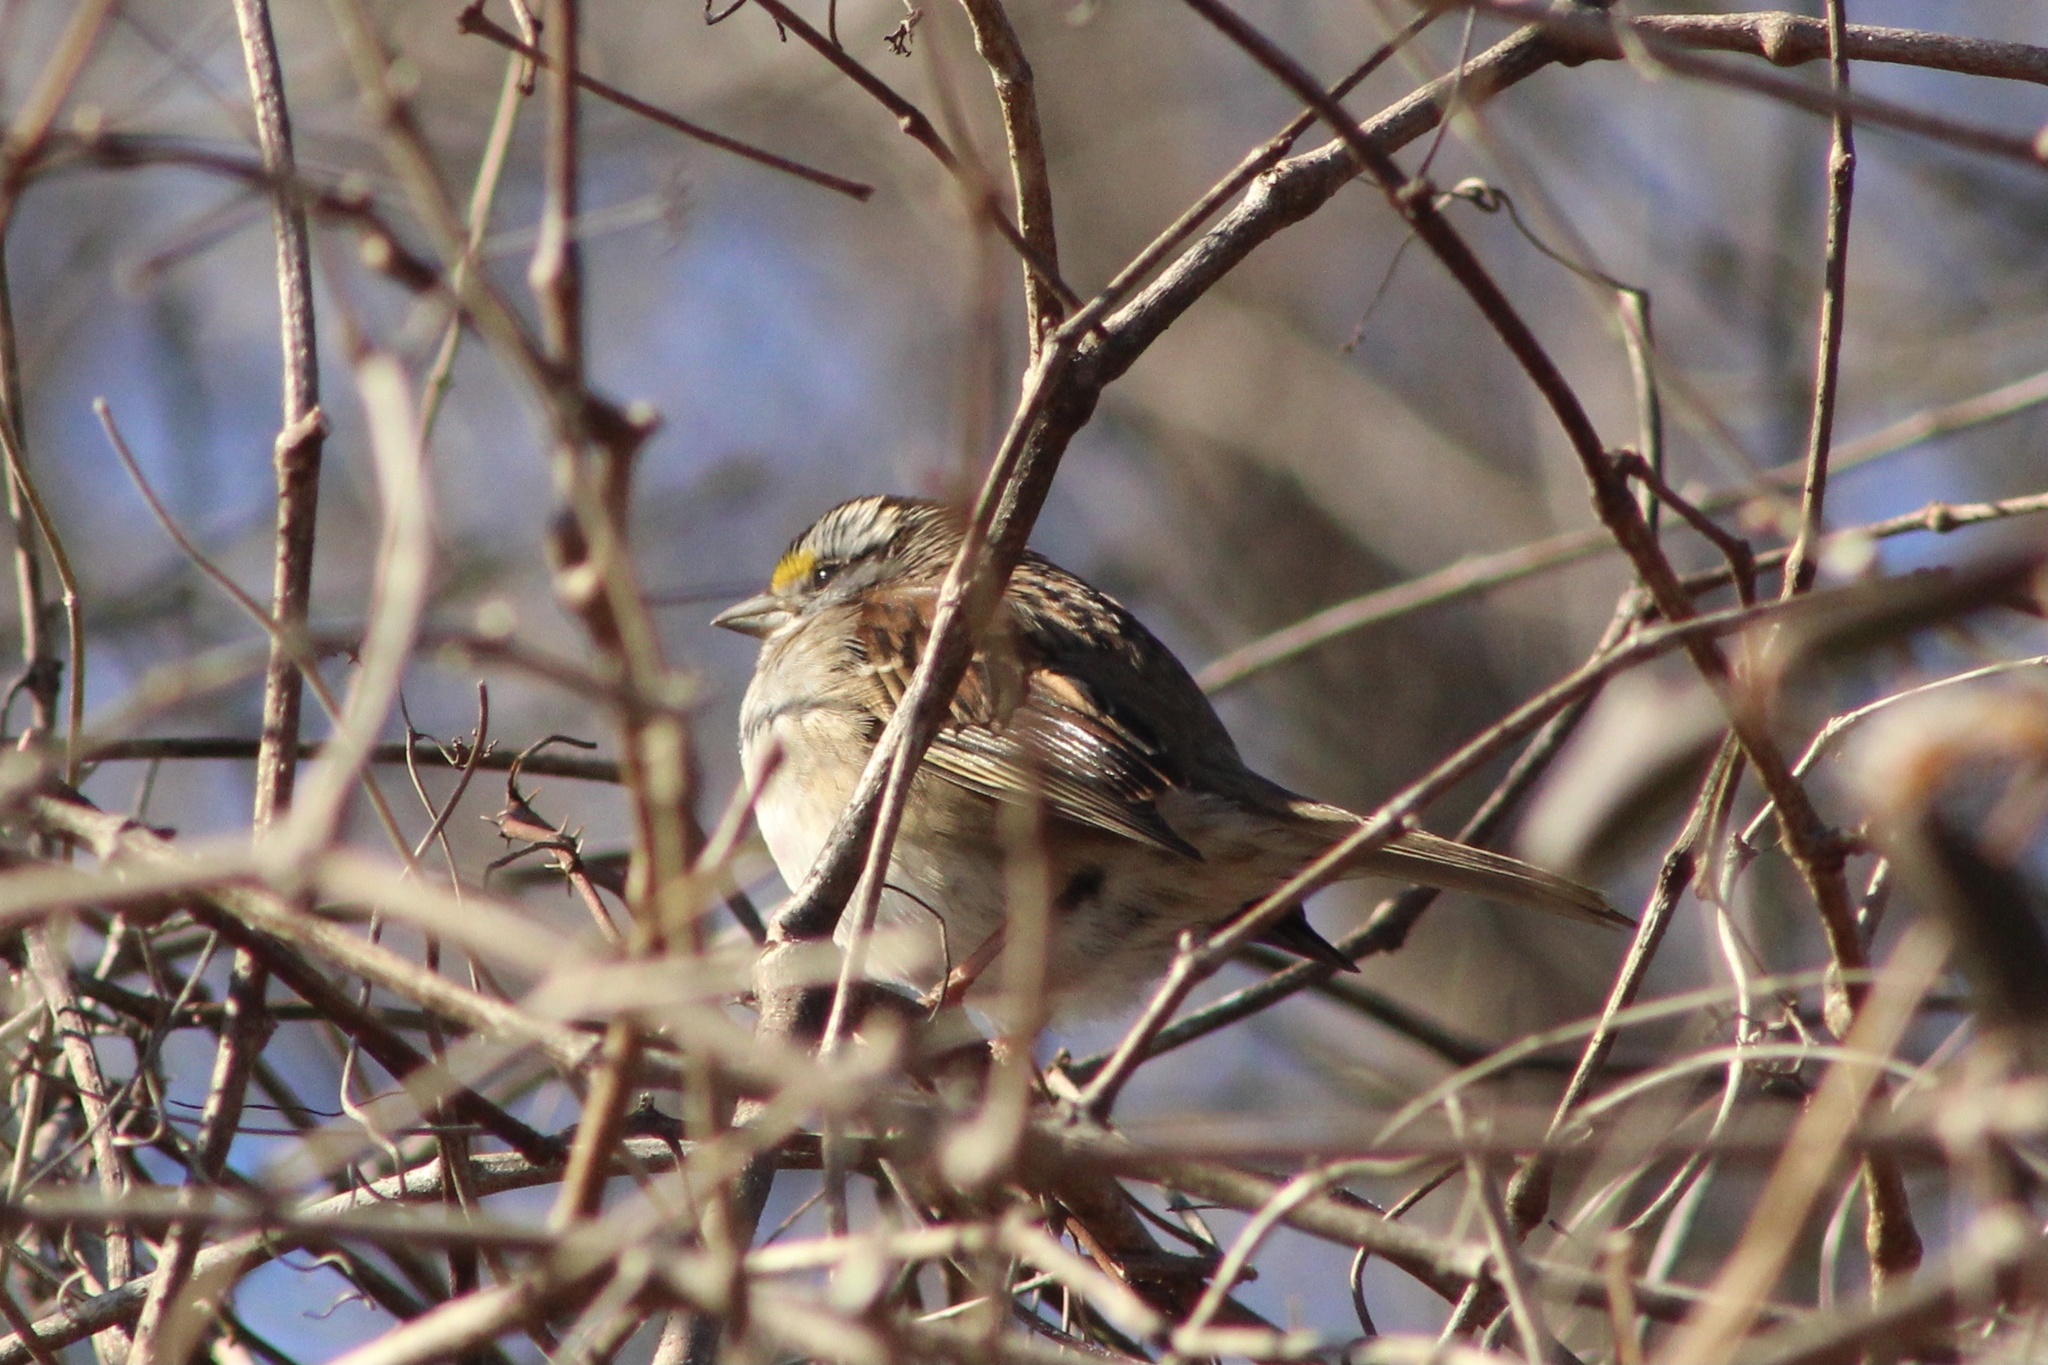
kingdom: Animalia
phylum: Chordata
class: Aves
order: Passeriformes
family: Passerellidae
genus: Zonotrichia
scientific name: Zonotrichia albicollis
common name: White-throated sparrow
